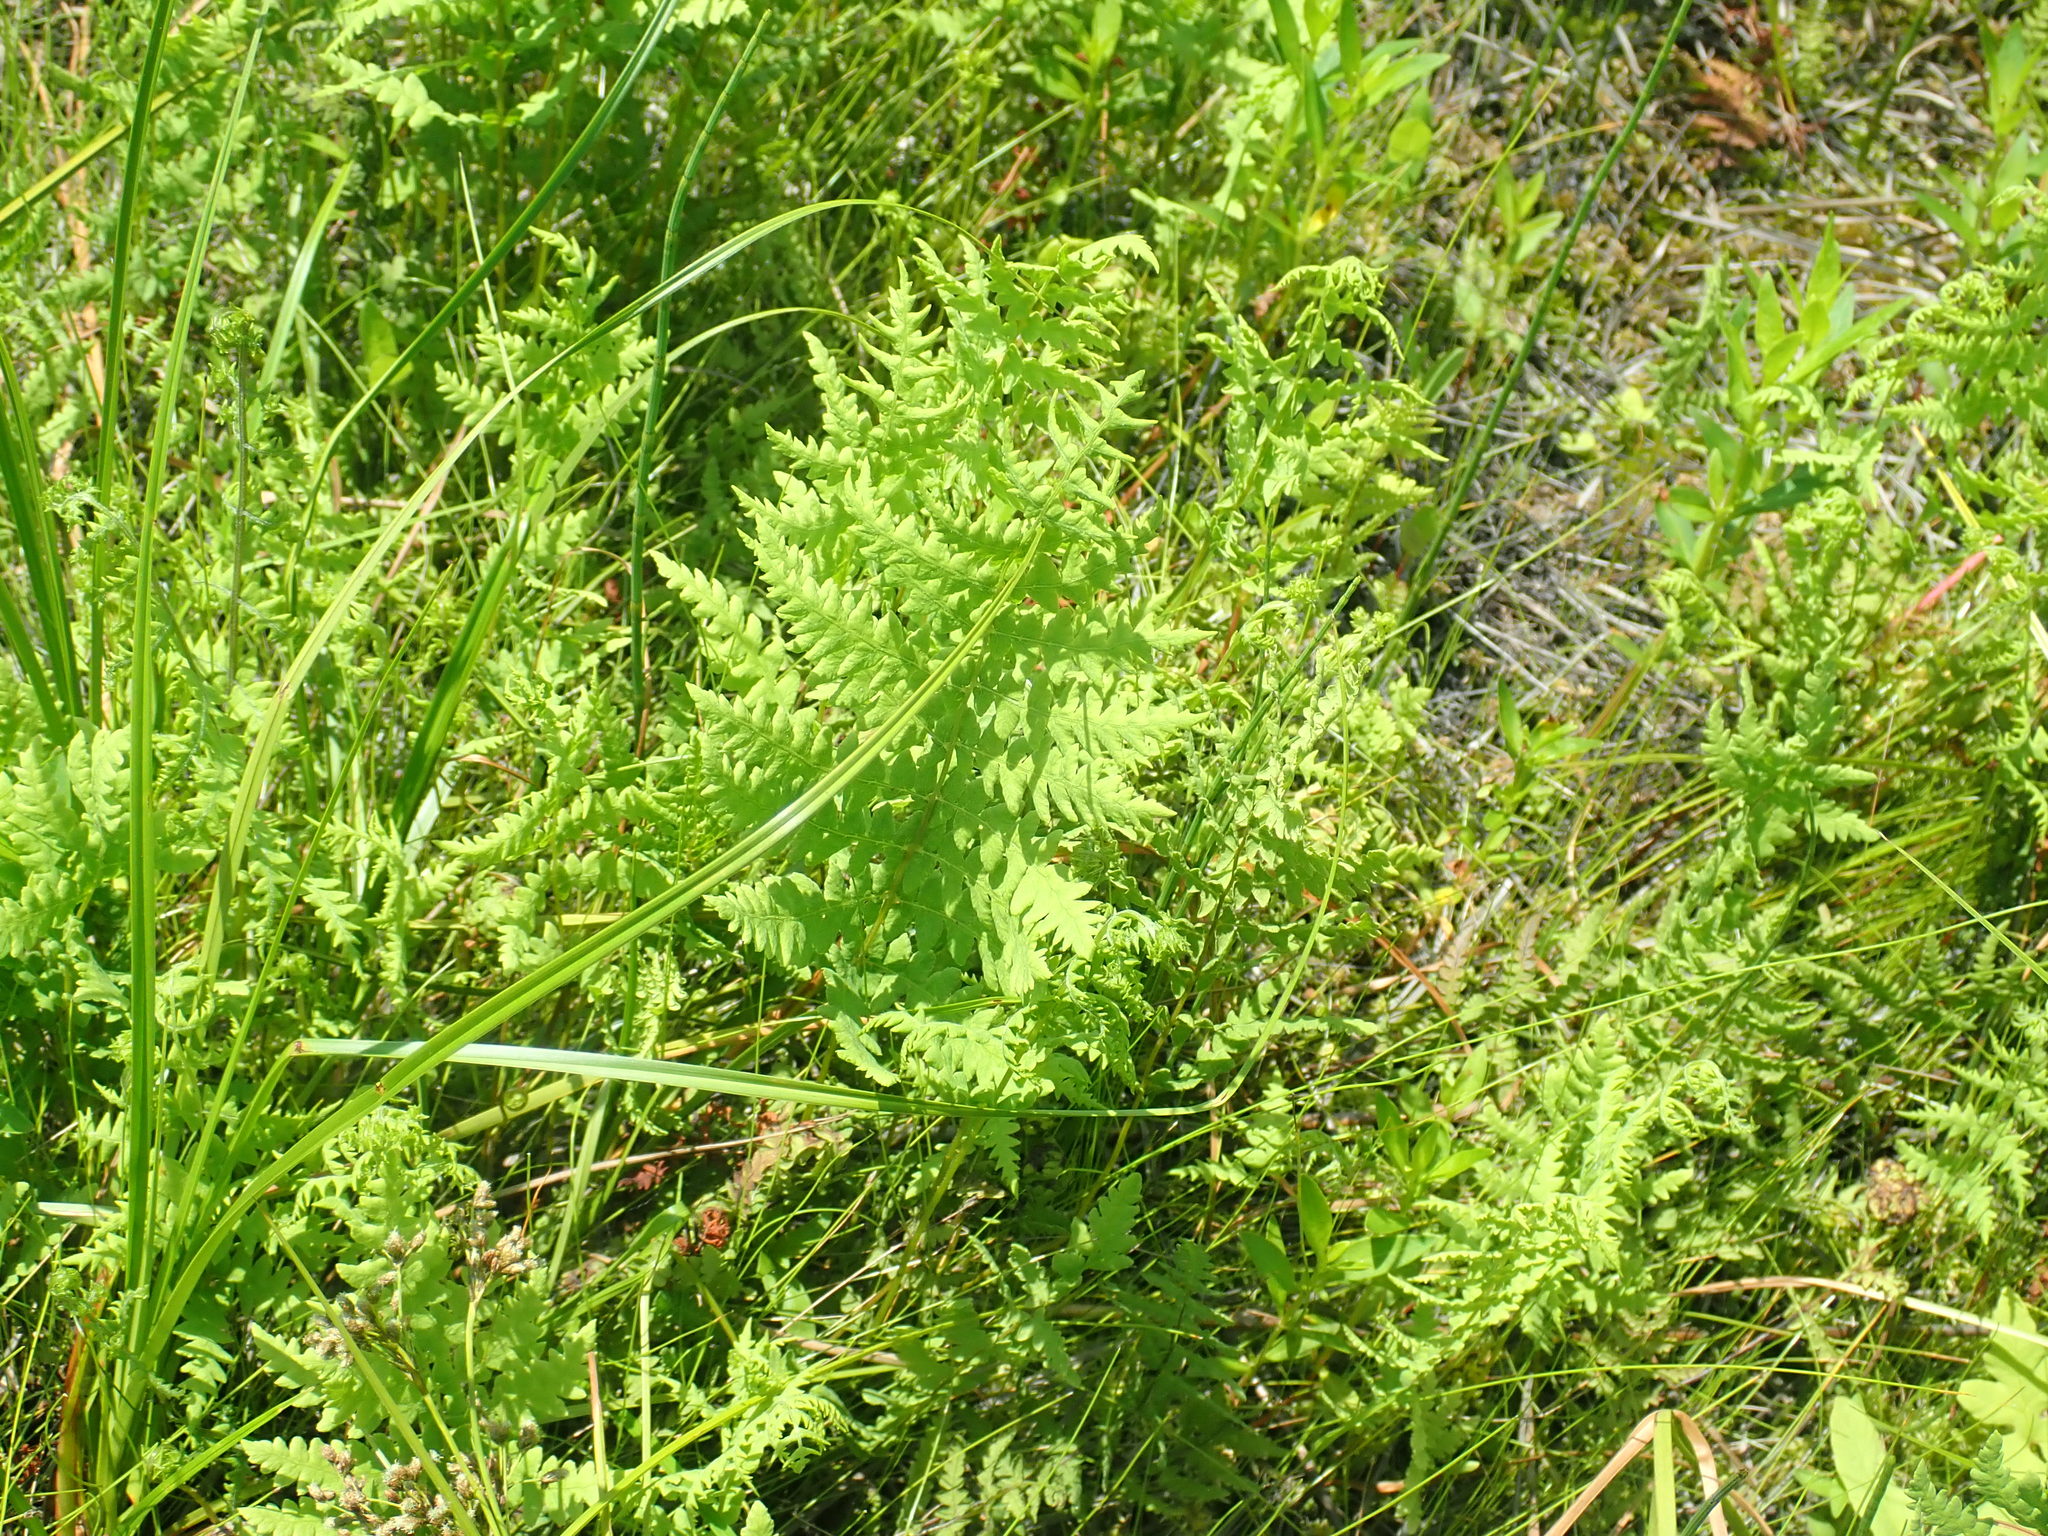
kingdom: Plantae
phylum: Tracheophyta
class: Polypodiopsida
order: Polypodiales
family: Thelypteridaceae
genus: Thelypteris
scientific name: Thelypteris palustris
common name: Marsh fern
